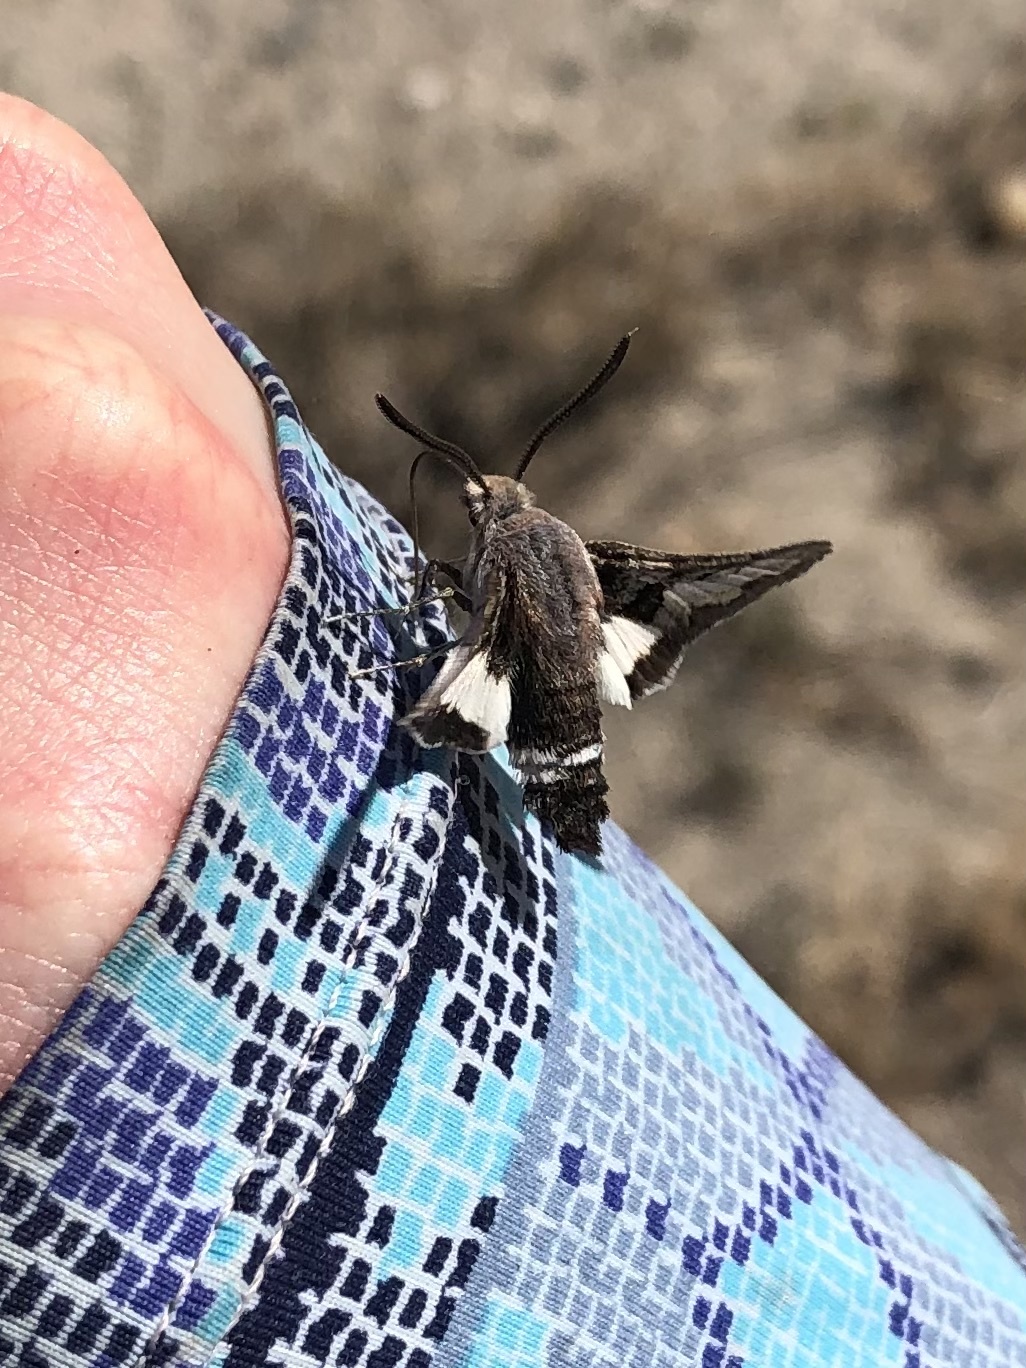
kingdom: Animalia
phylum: Arthropoda
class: Insecta
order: Lepidoptera
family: Sphingidae
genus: Euproserpinus
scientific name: Euproserpinus phaeton
